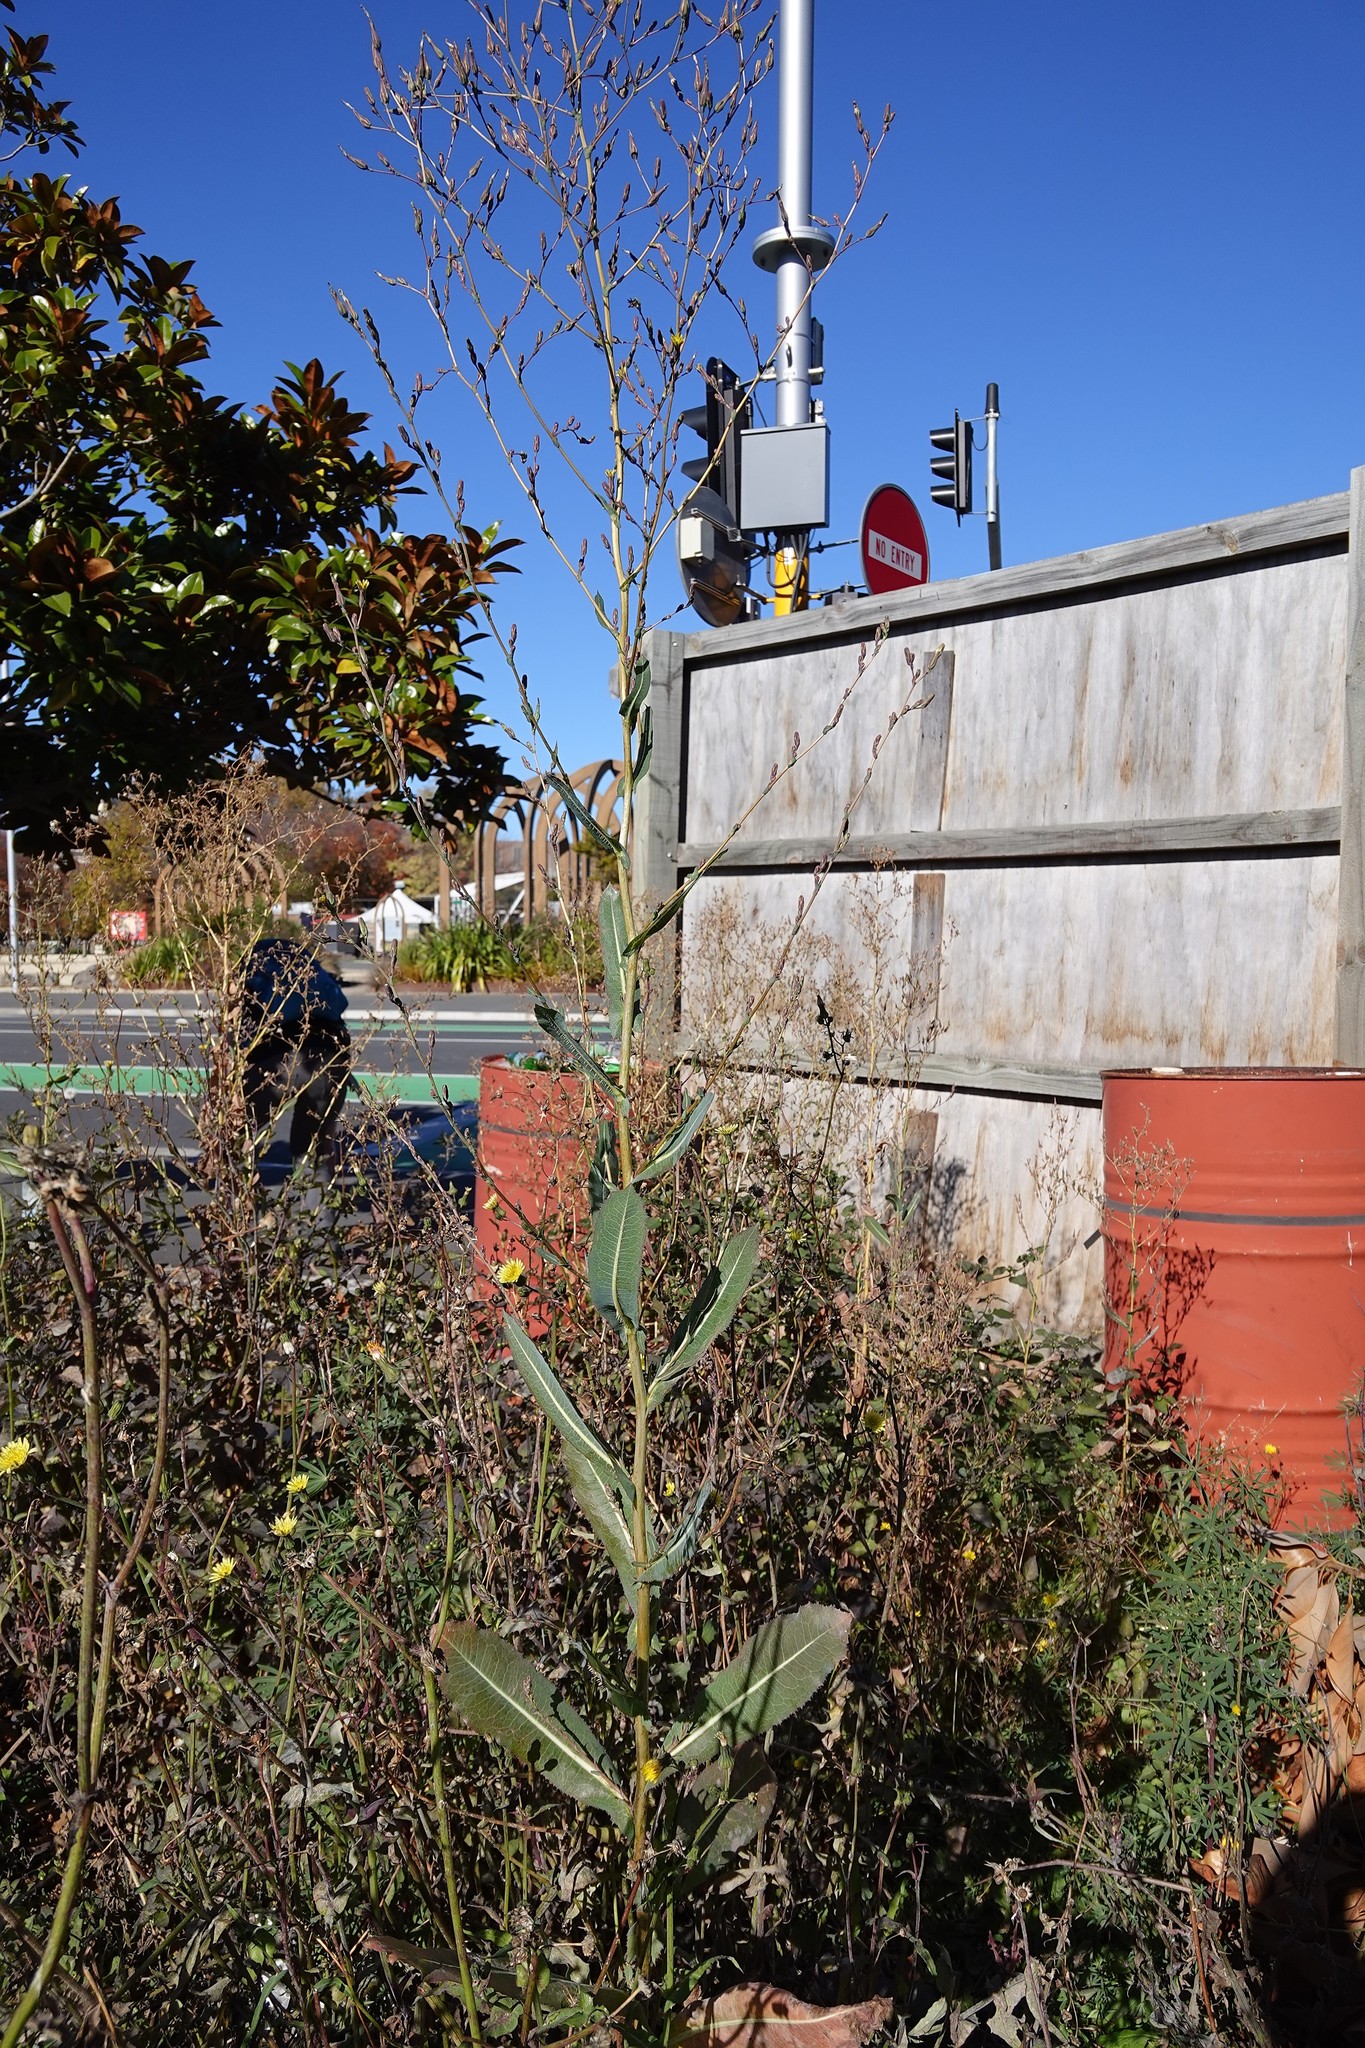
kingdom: Plantae
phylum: Tracheophyta
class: Magnoliopsida
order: Asterales
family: Asteraceae
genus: Lactuca
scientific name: Lactuca serriola
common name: Prickly lettuce
